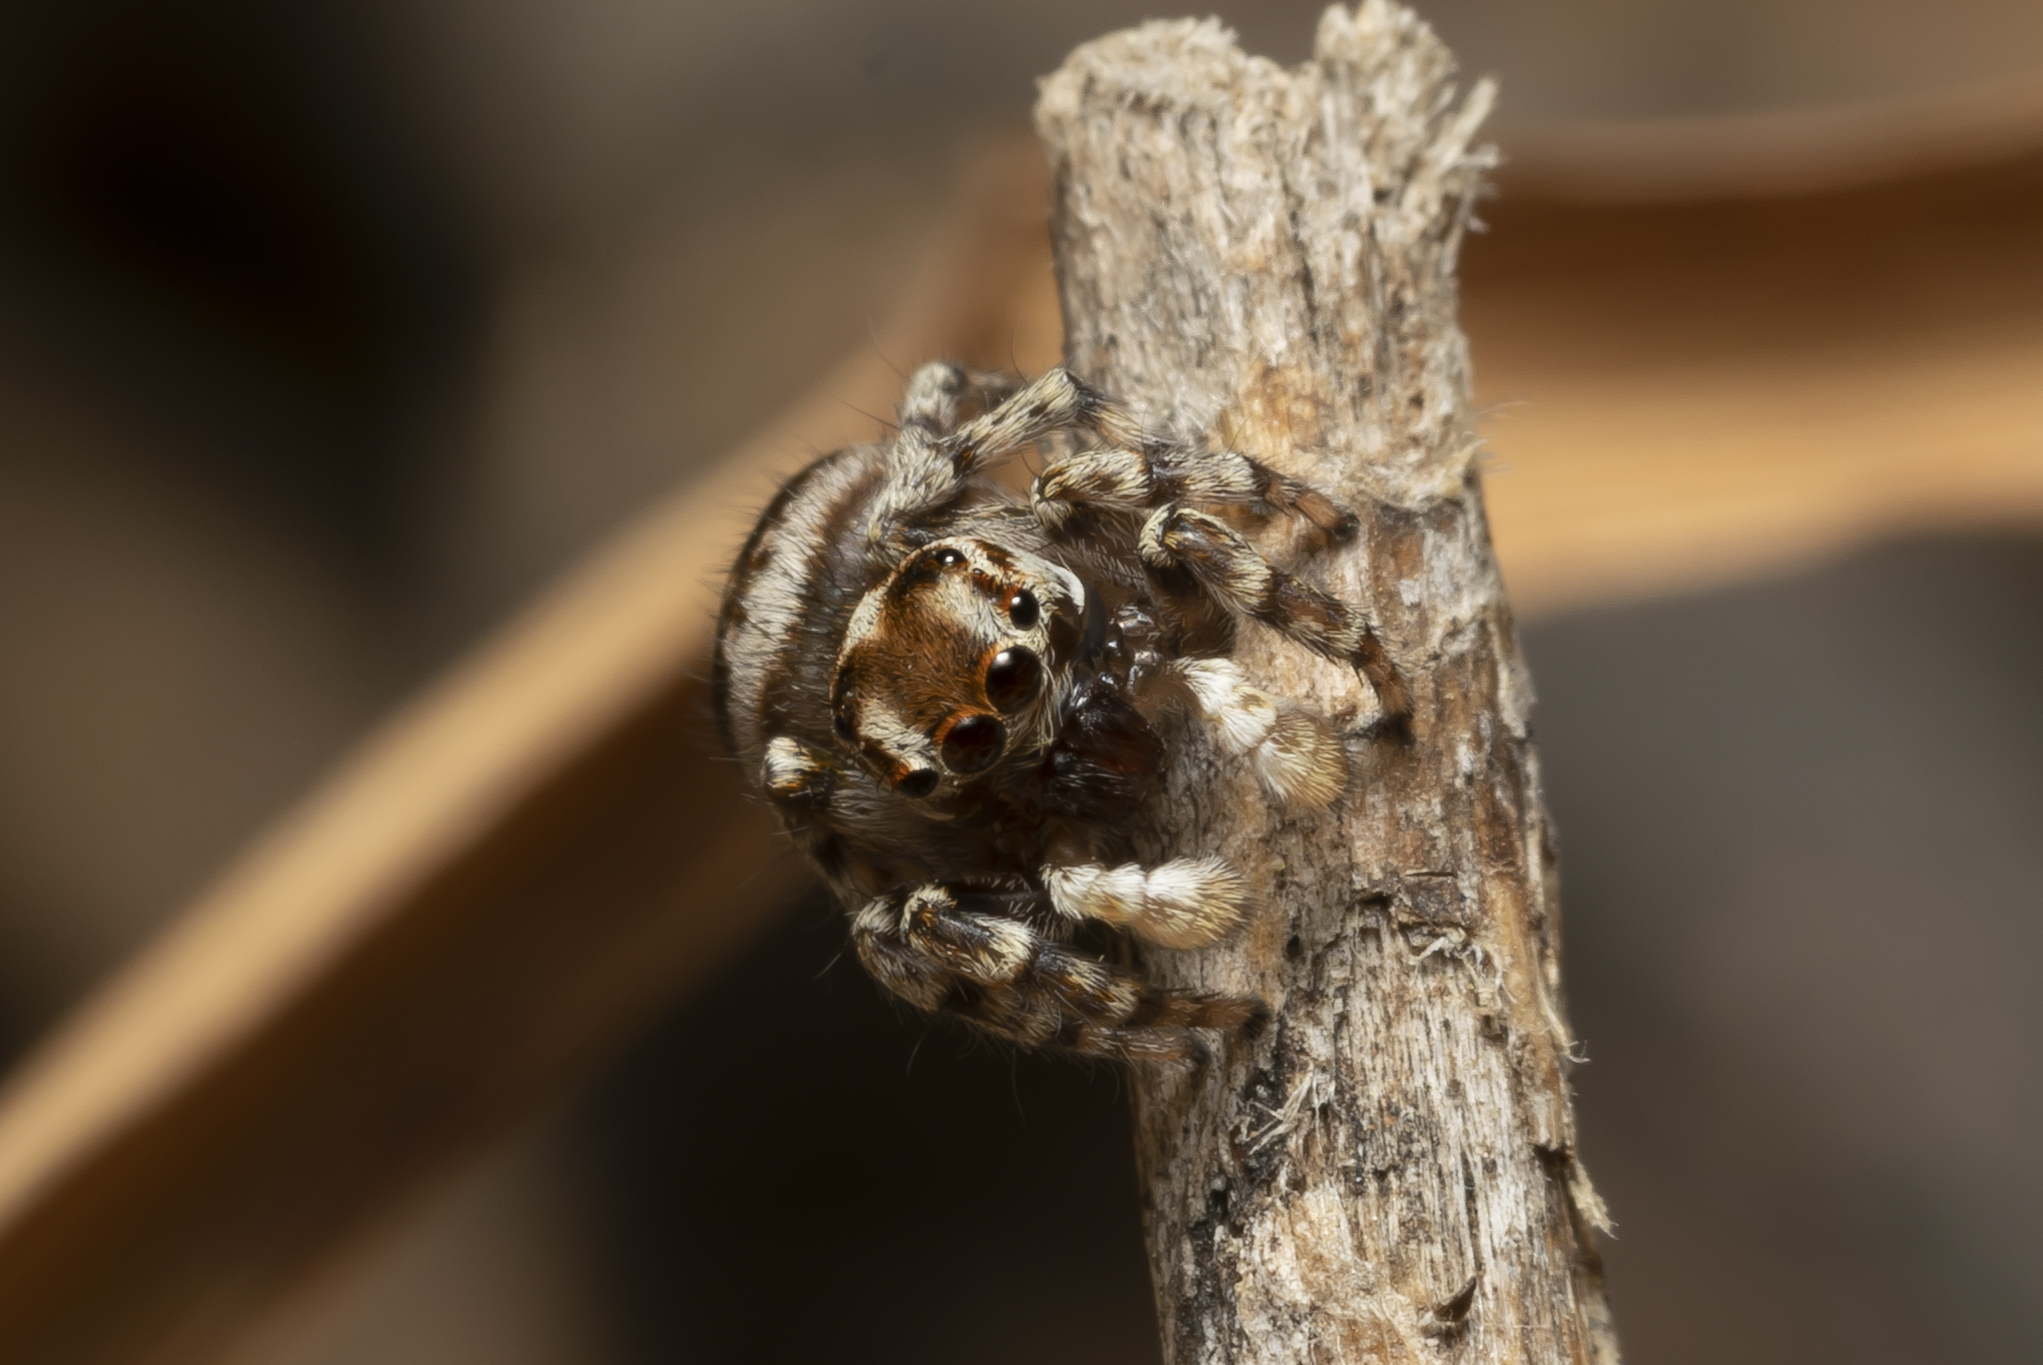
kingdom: Animalia
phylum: Arthropoda
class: Arachnida
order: Araneae
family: Salticidae
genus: Habrocestum
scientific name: Habrocestum egaeum
